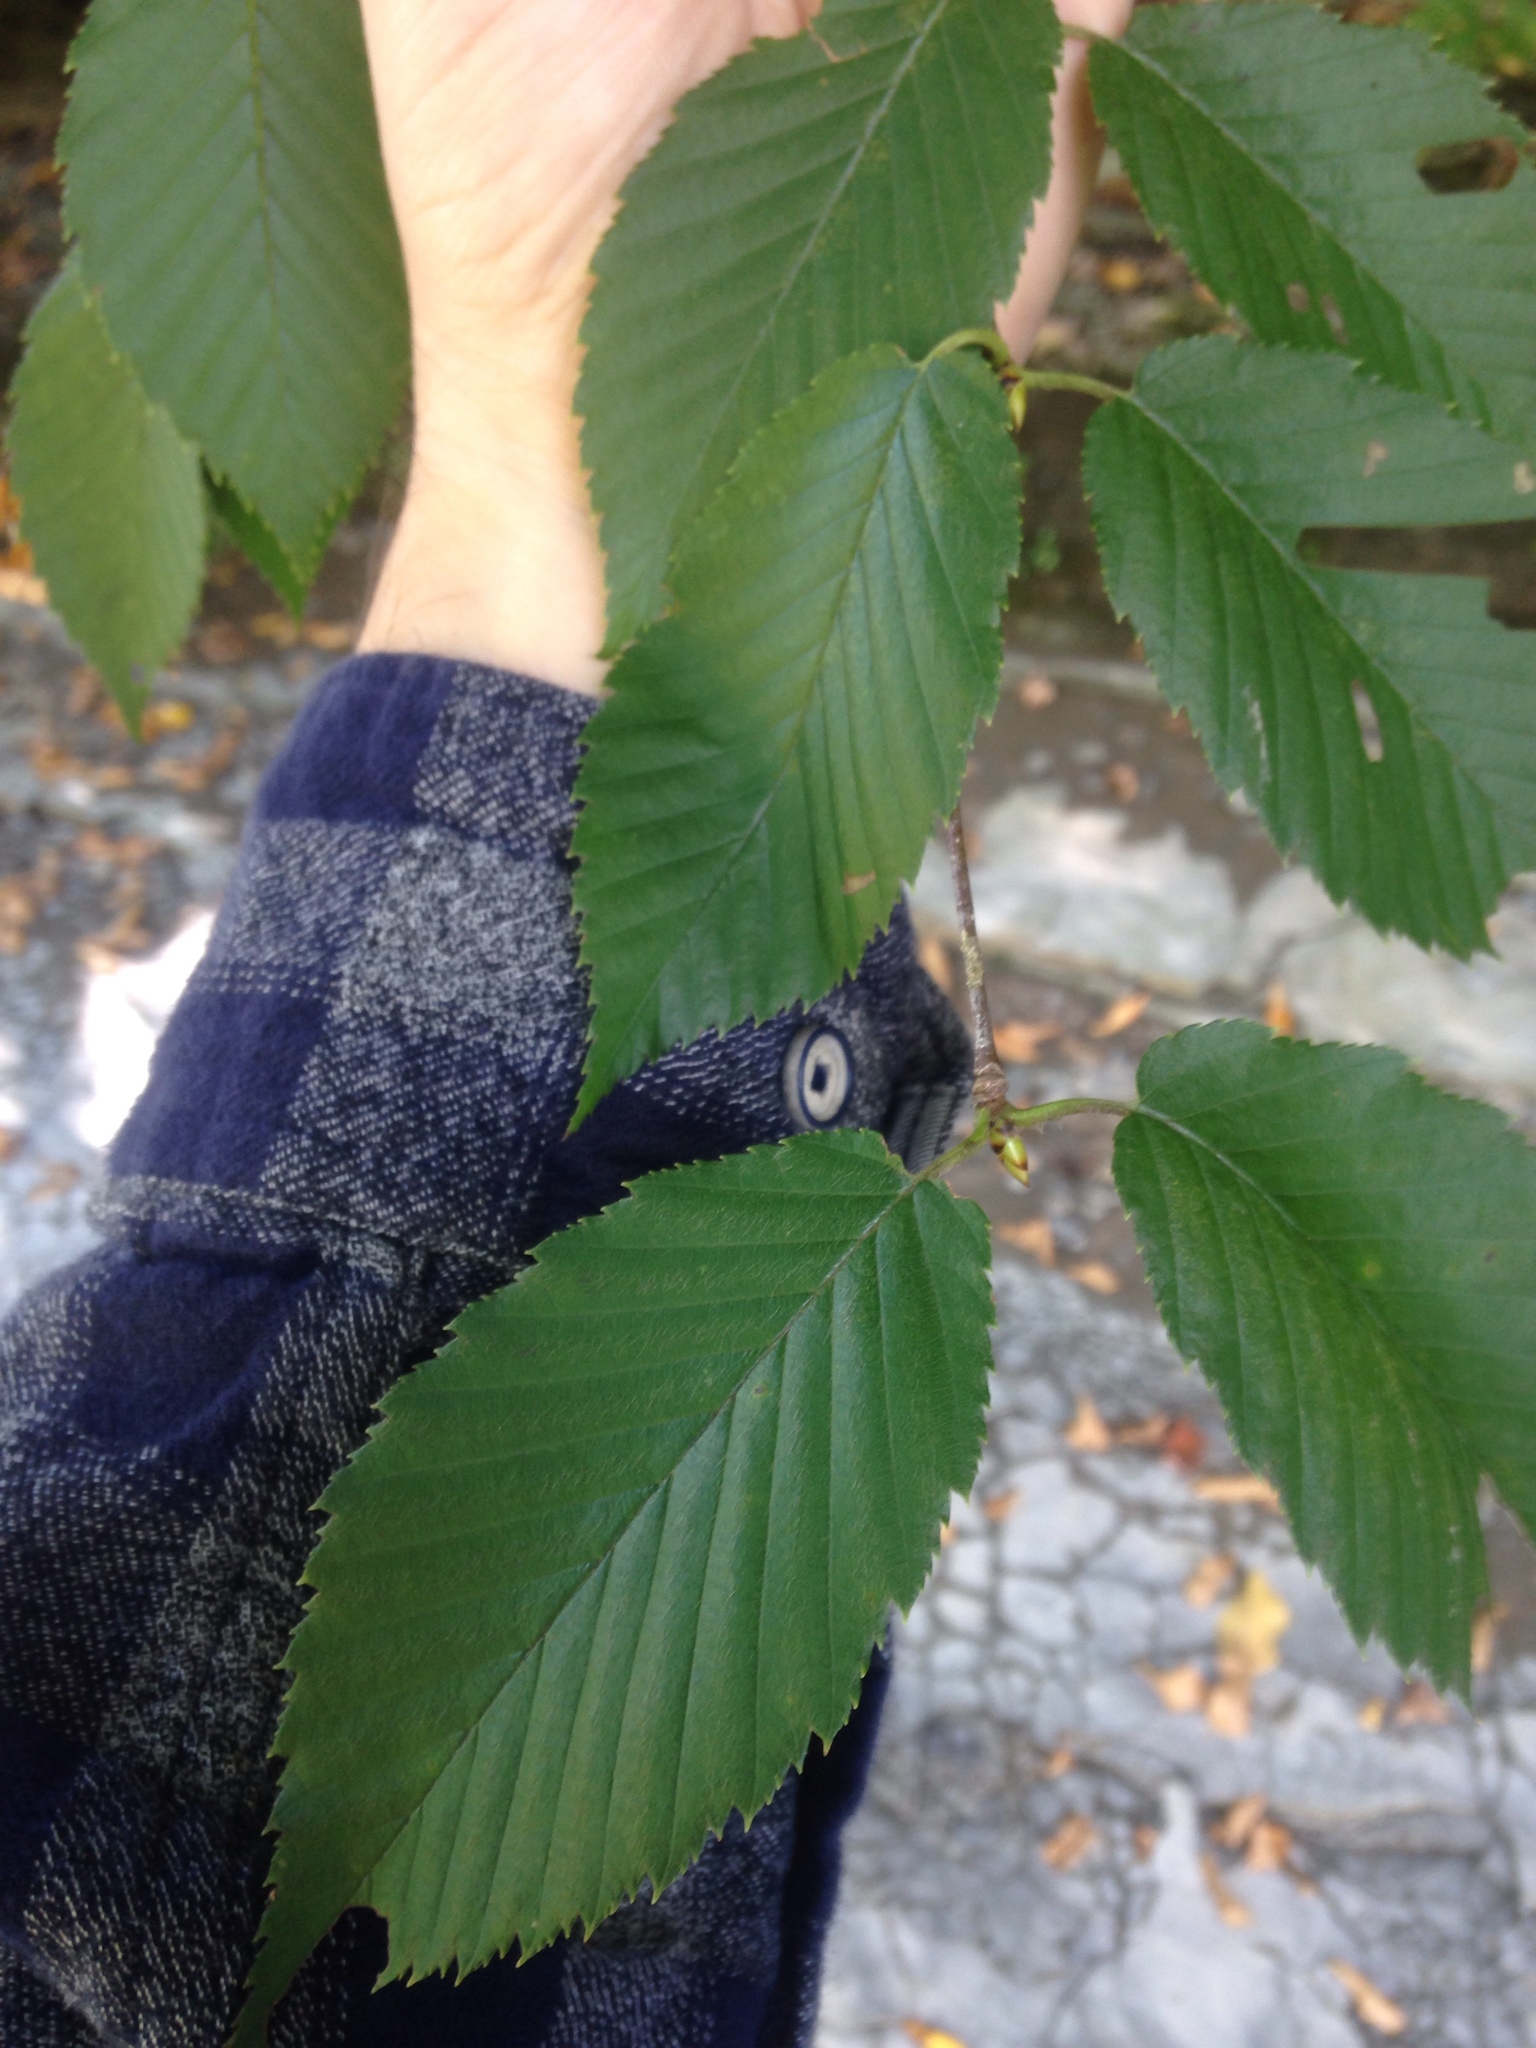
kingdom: Plantae
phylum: Tracheophyta
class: Magnoliopsida
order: Fagales
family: Betulaceae
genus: Betula
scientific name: Betula alleghaniensis
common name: Yellow birch
